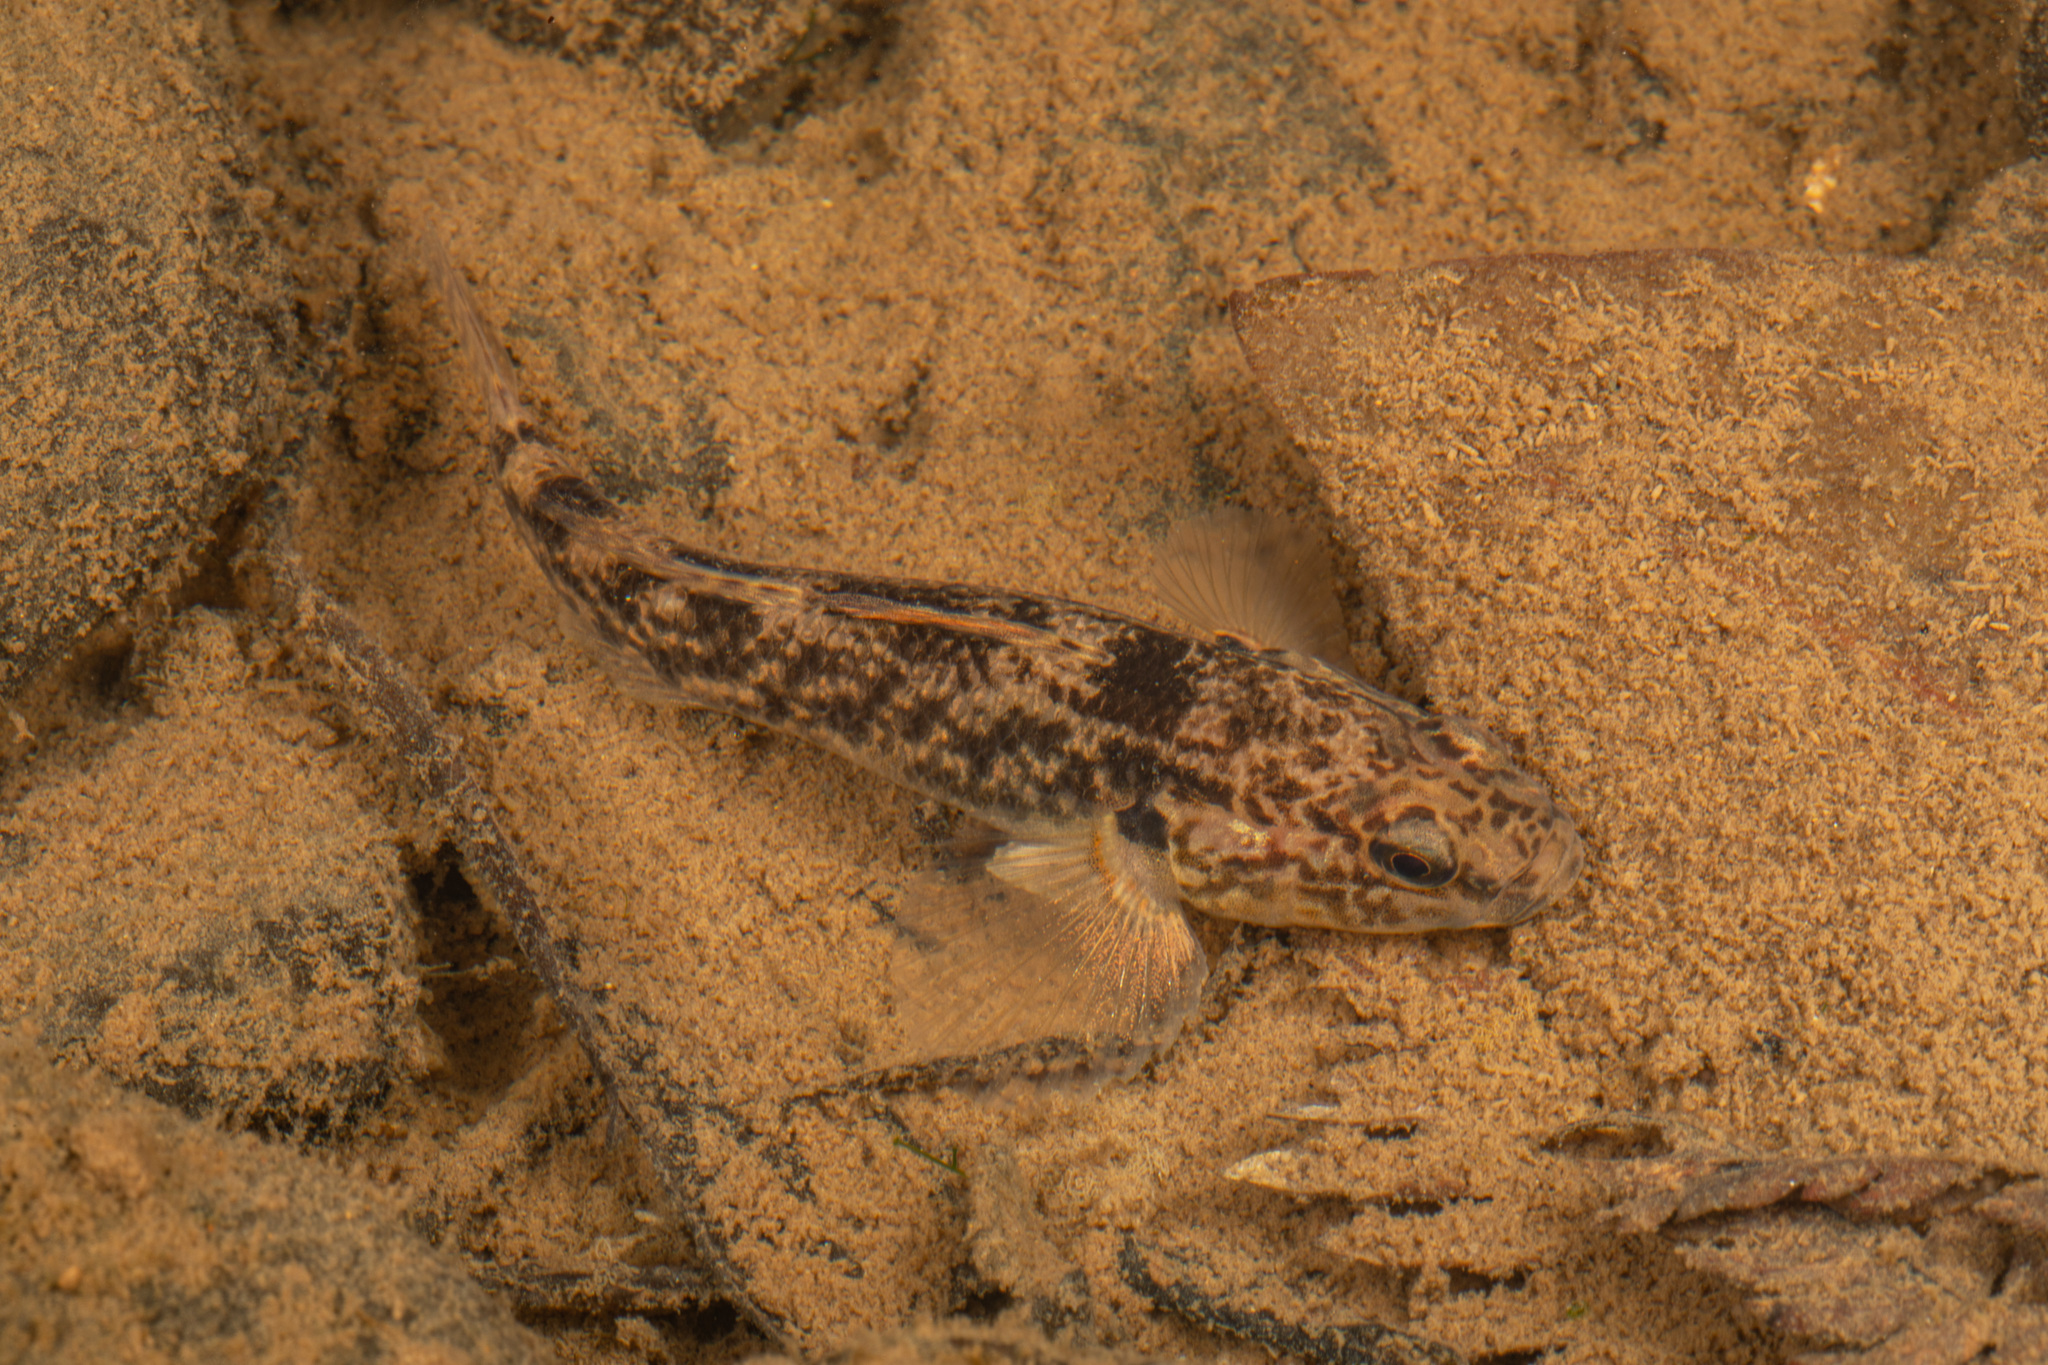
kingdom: Animalia
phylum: Chordata
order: Perciformes
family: Eleotridae
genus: Gobiomorphus
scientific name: Gobiomorphus basalis
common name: Tarndale bully
